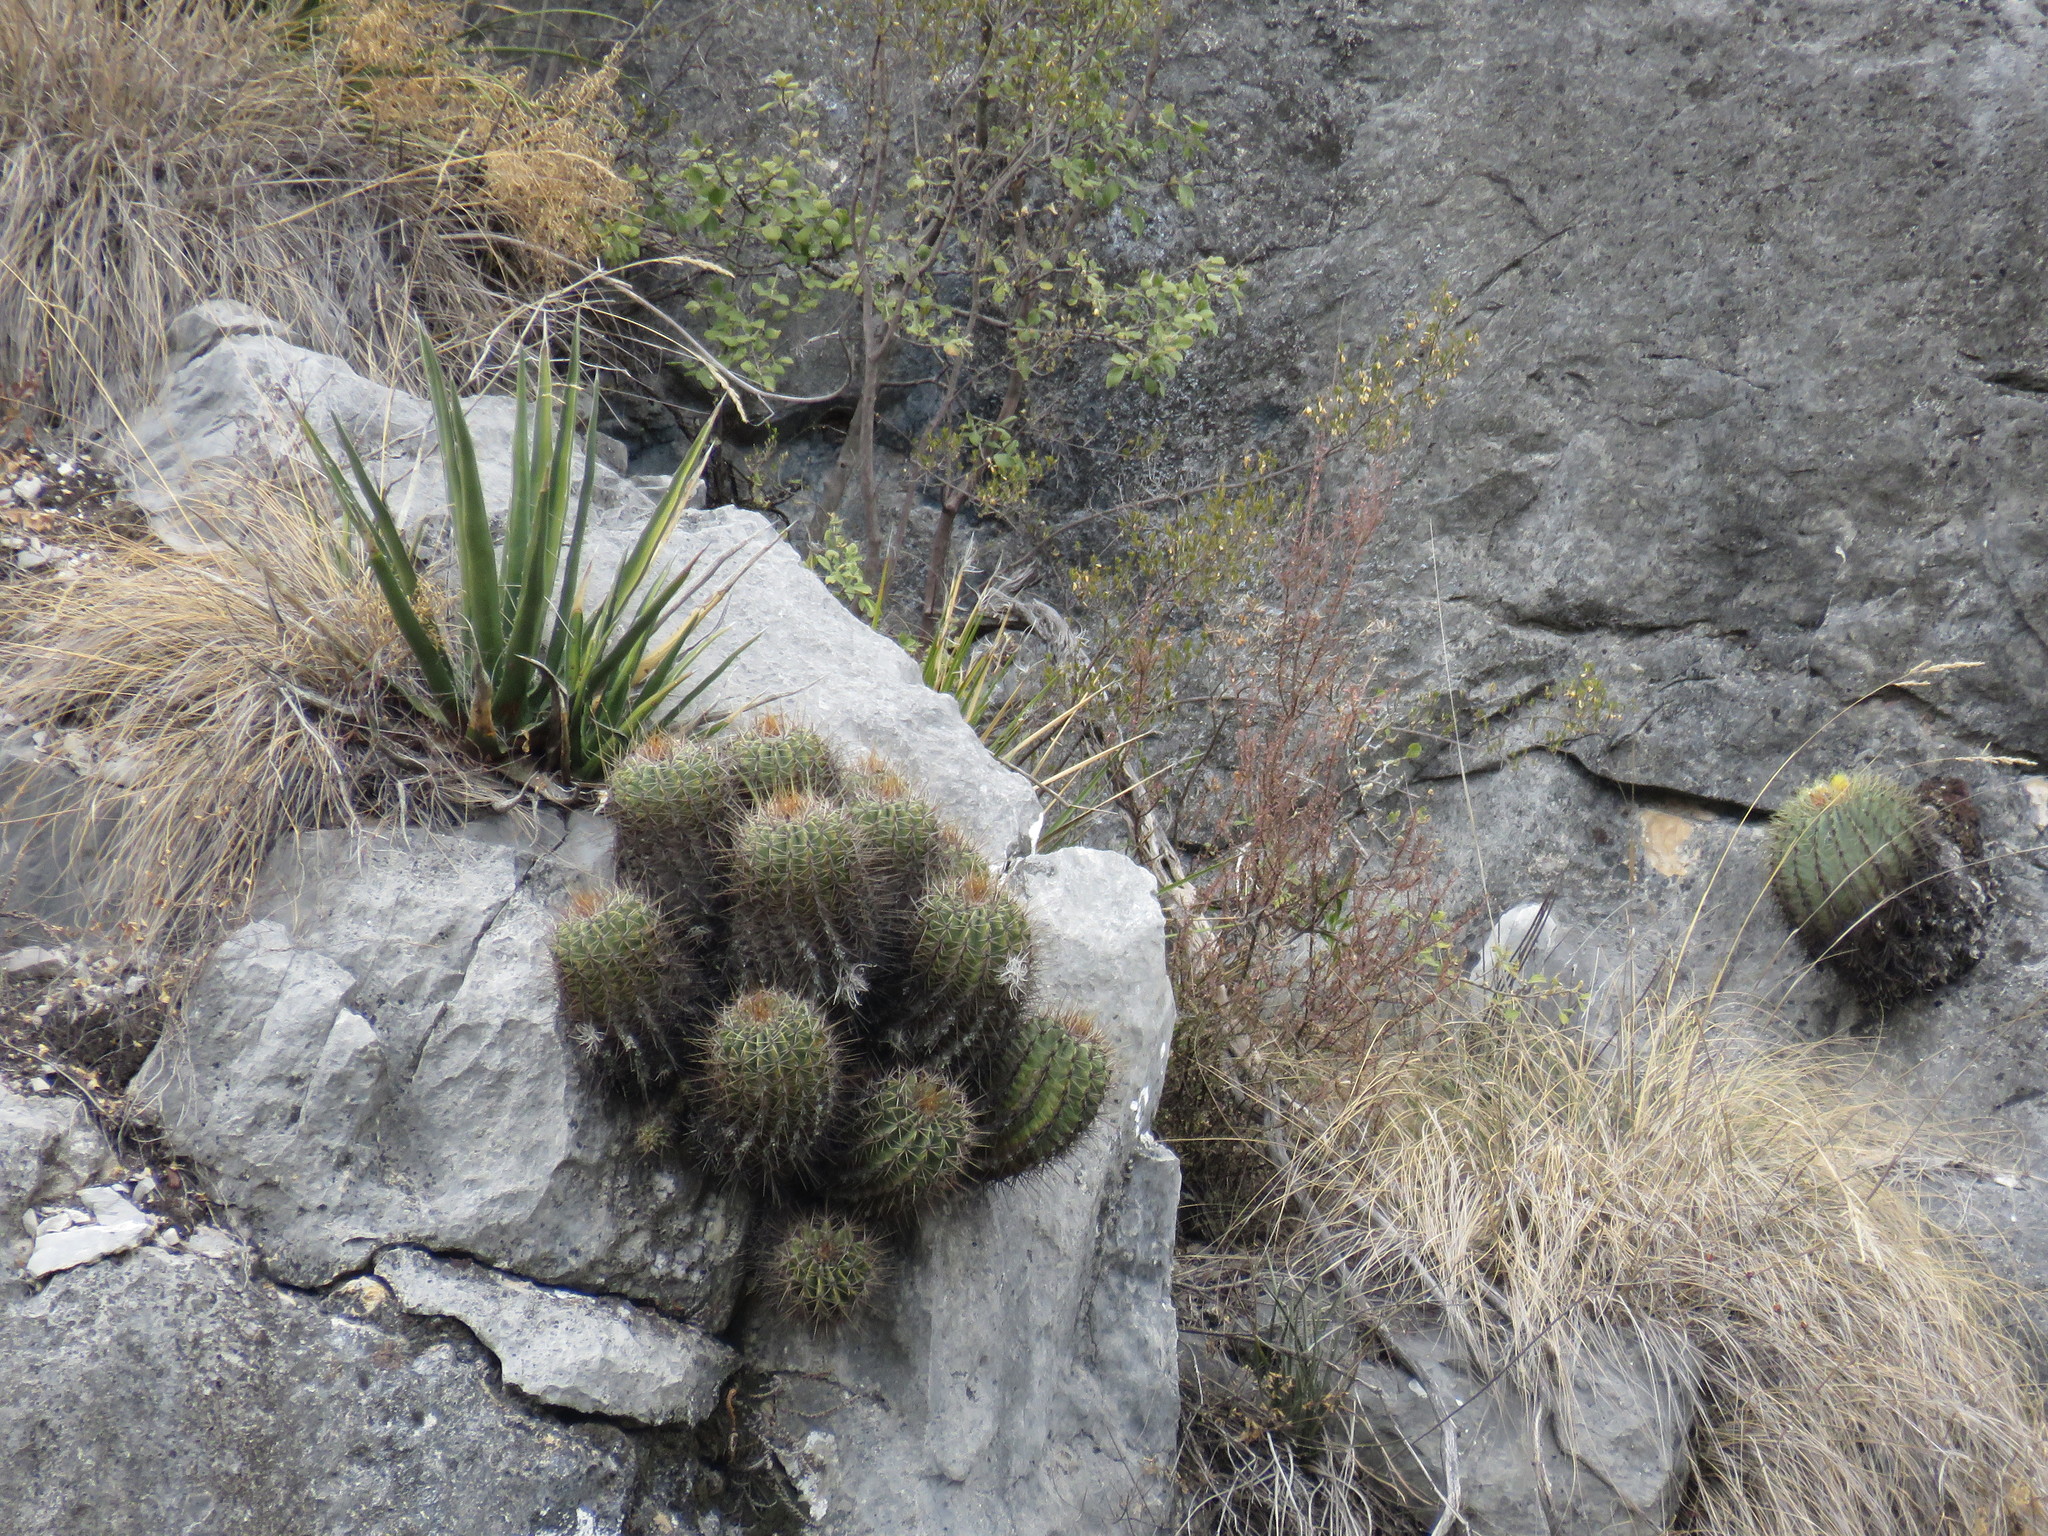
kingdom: Plantae
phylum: Tracheophyta
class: Magnoliopsida
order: Caryophyllales
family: Cactaceae
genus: Parrycactus
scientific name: Parrycactus echidne
